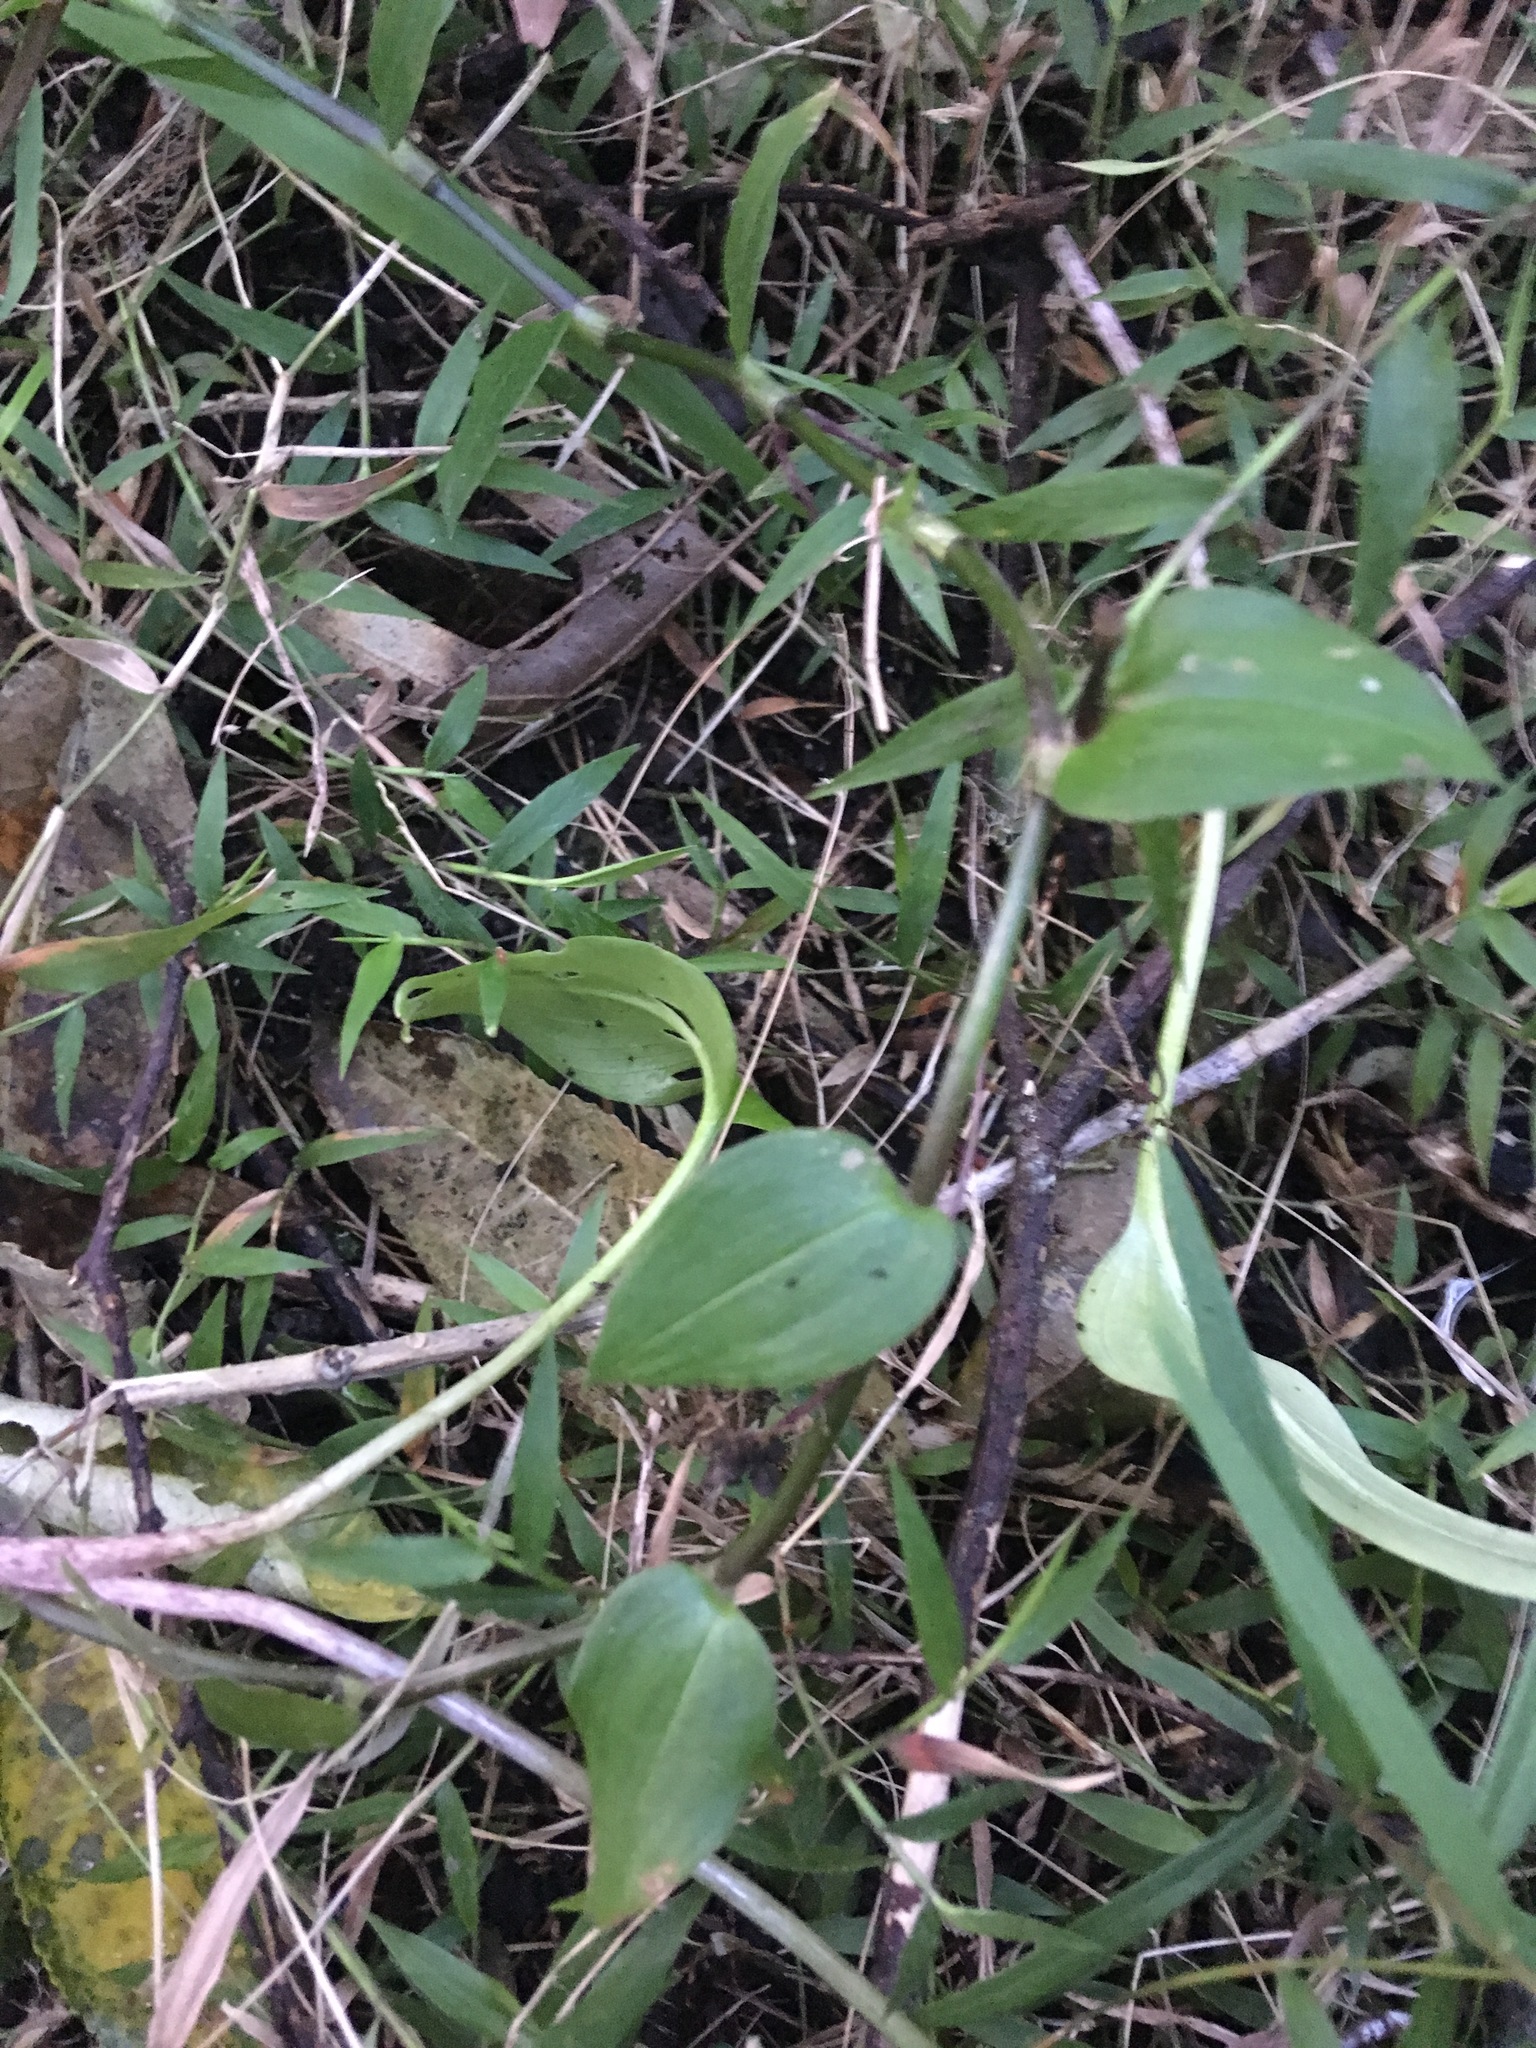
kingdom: Plantae
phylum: Tracheophyta
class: Liliopsida
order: Commelinales
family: Commelinaceae
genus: Tradescantia
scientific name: Tradescantia fluminensis
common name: Wandering-jew
